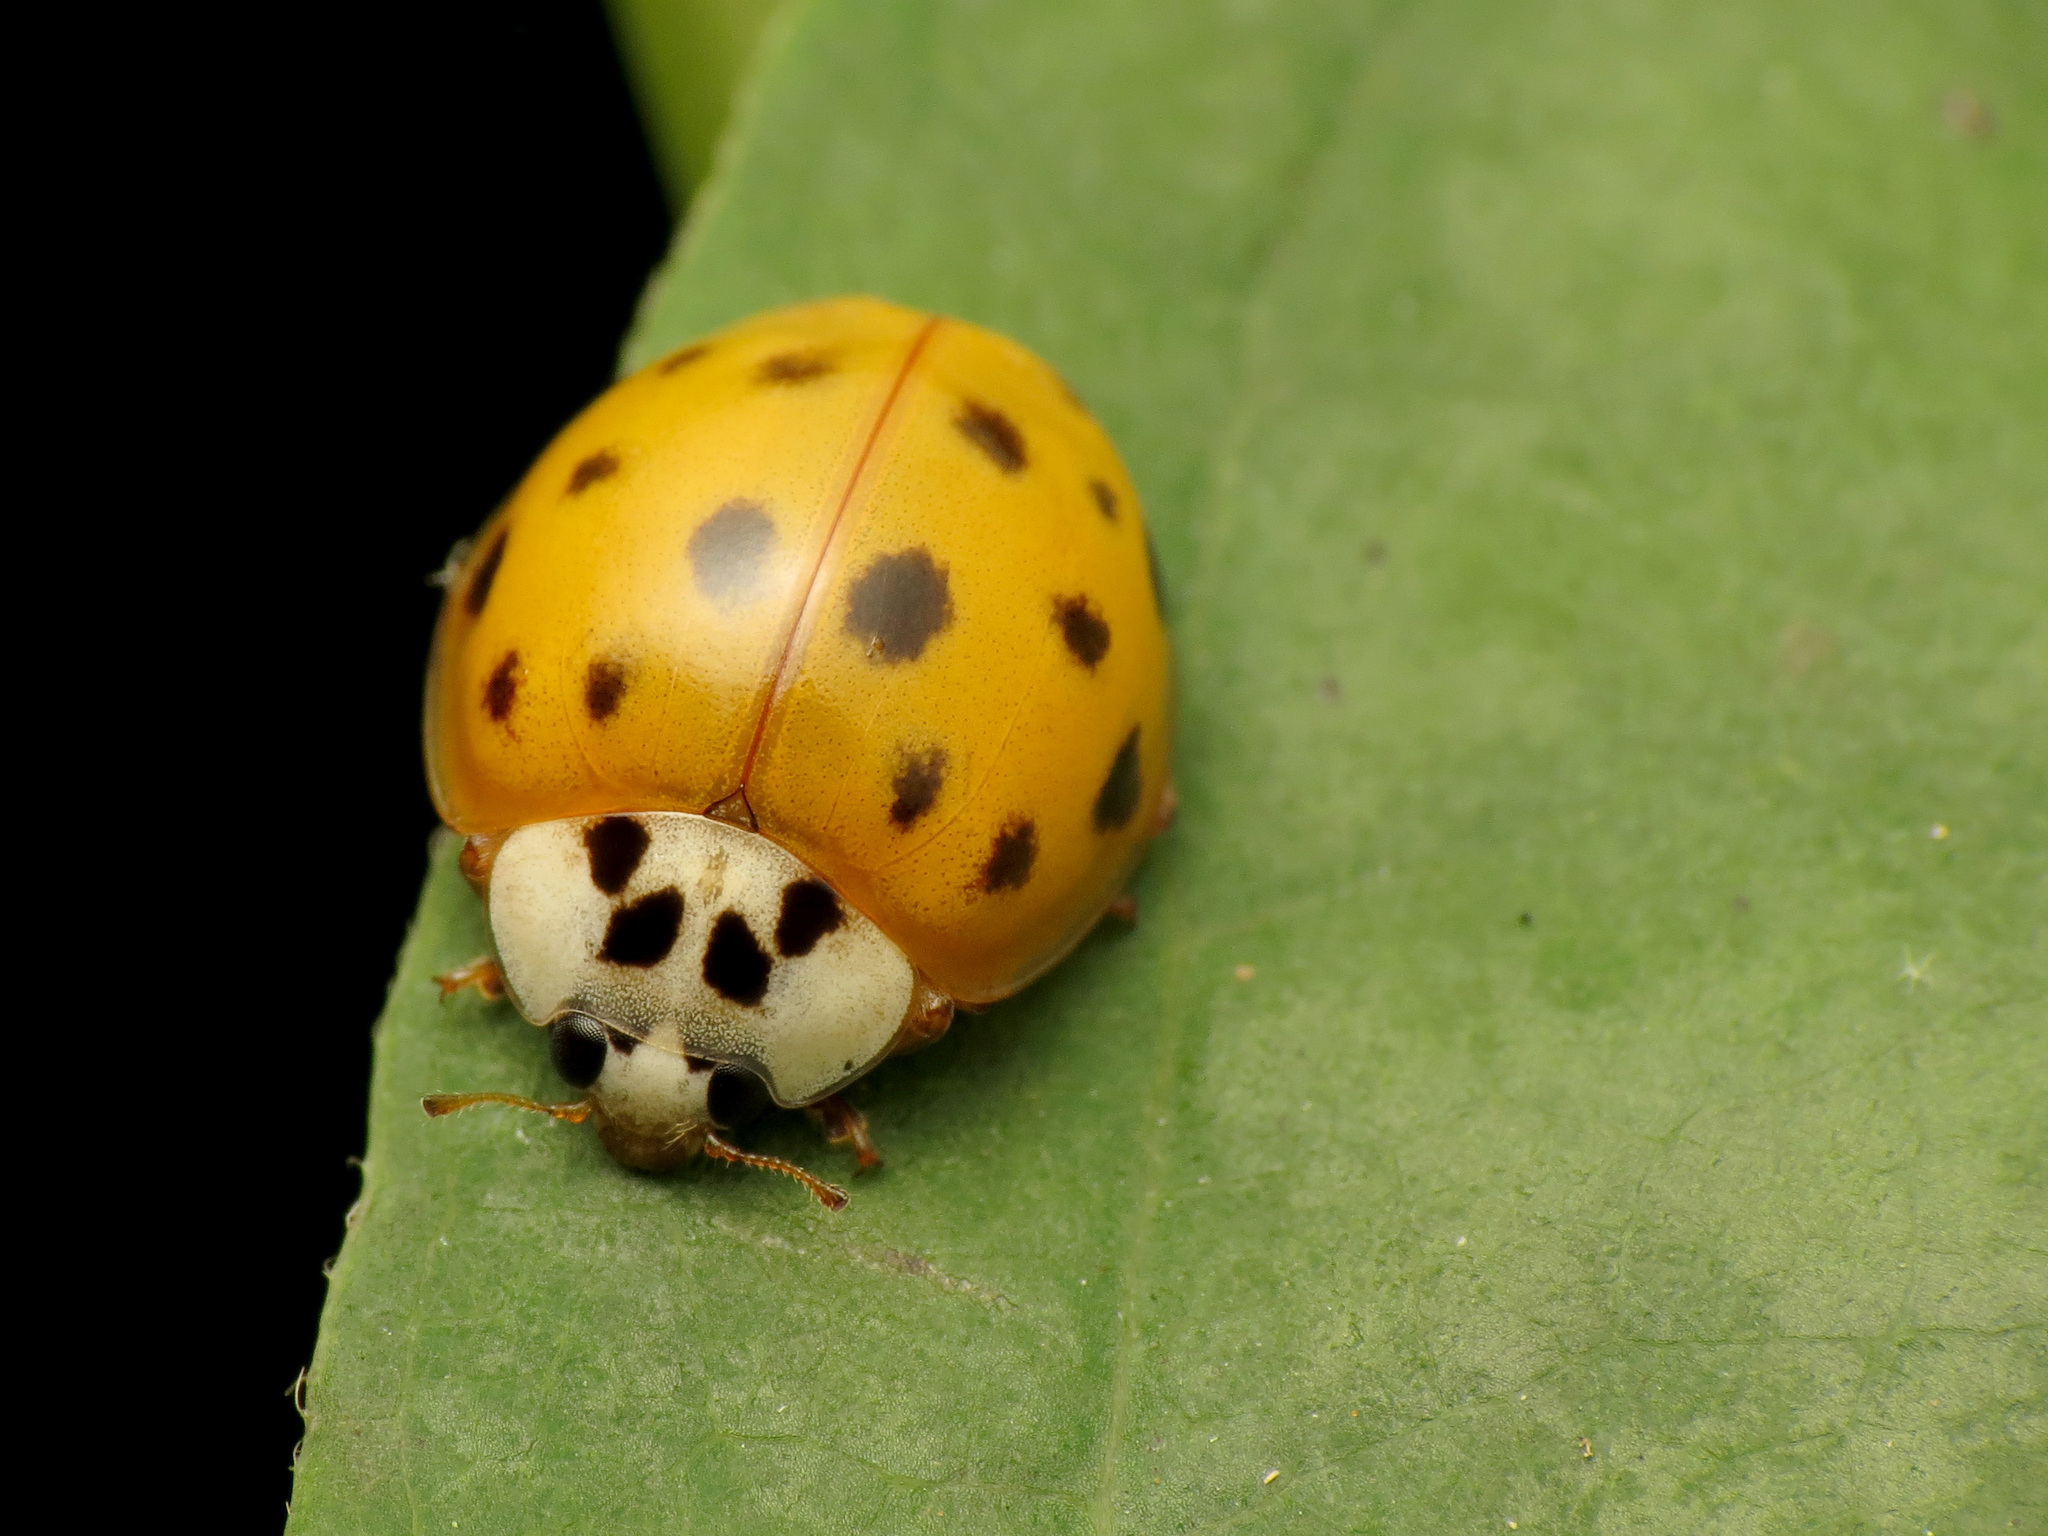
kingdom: Animalia
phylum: Arthropoda
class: Insecta
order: Coleoptera
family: Coccinellidae
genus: Harmonia
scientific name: Harmonia axyridis
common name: Harlequin ladybird
